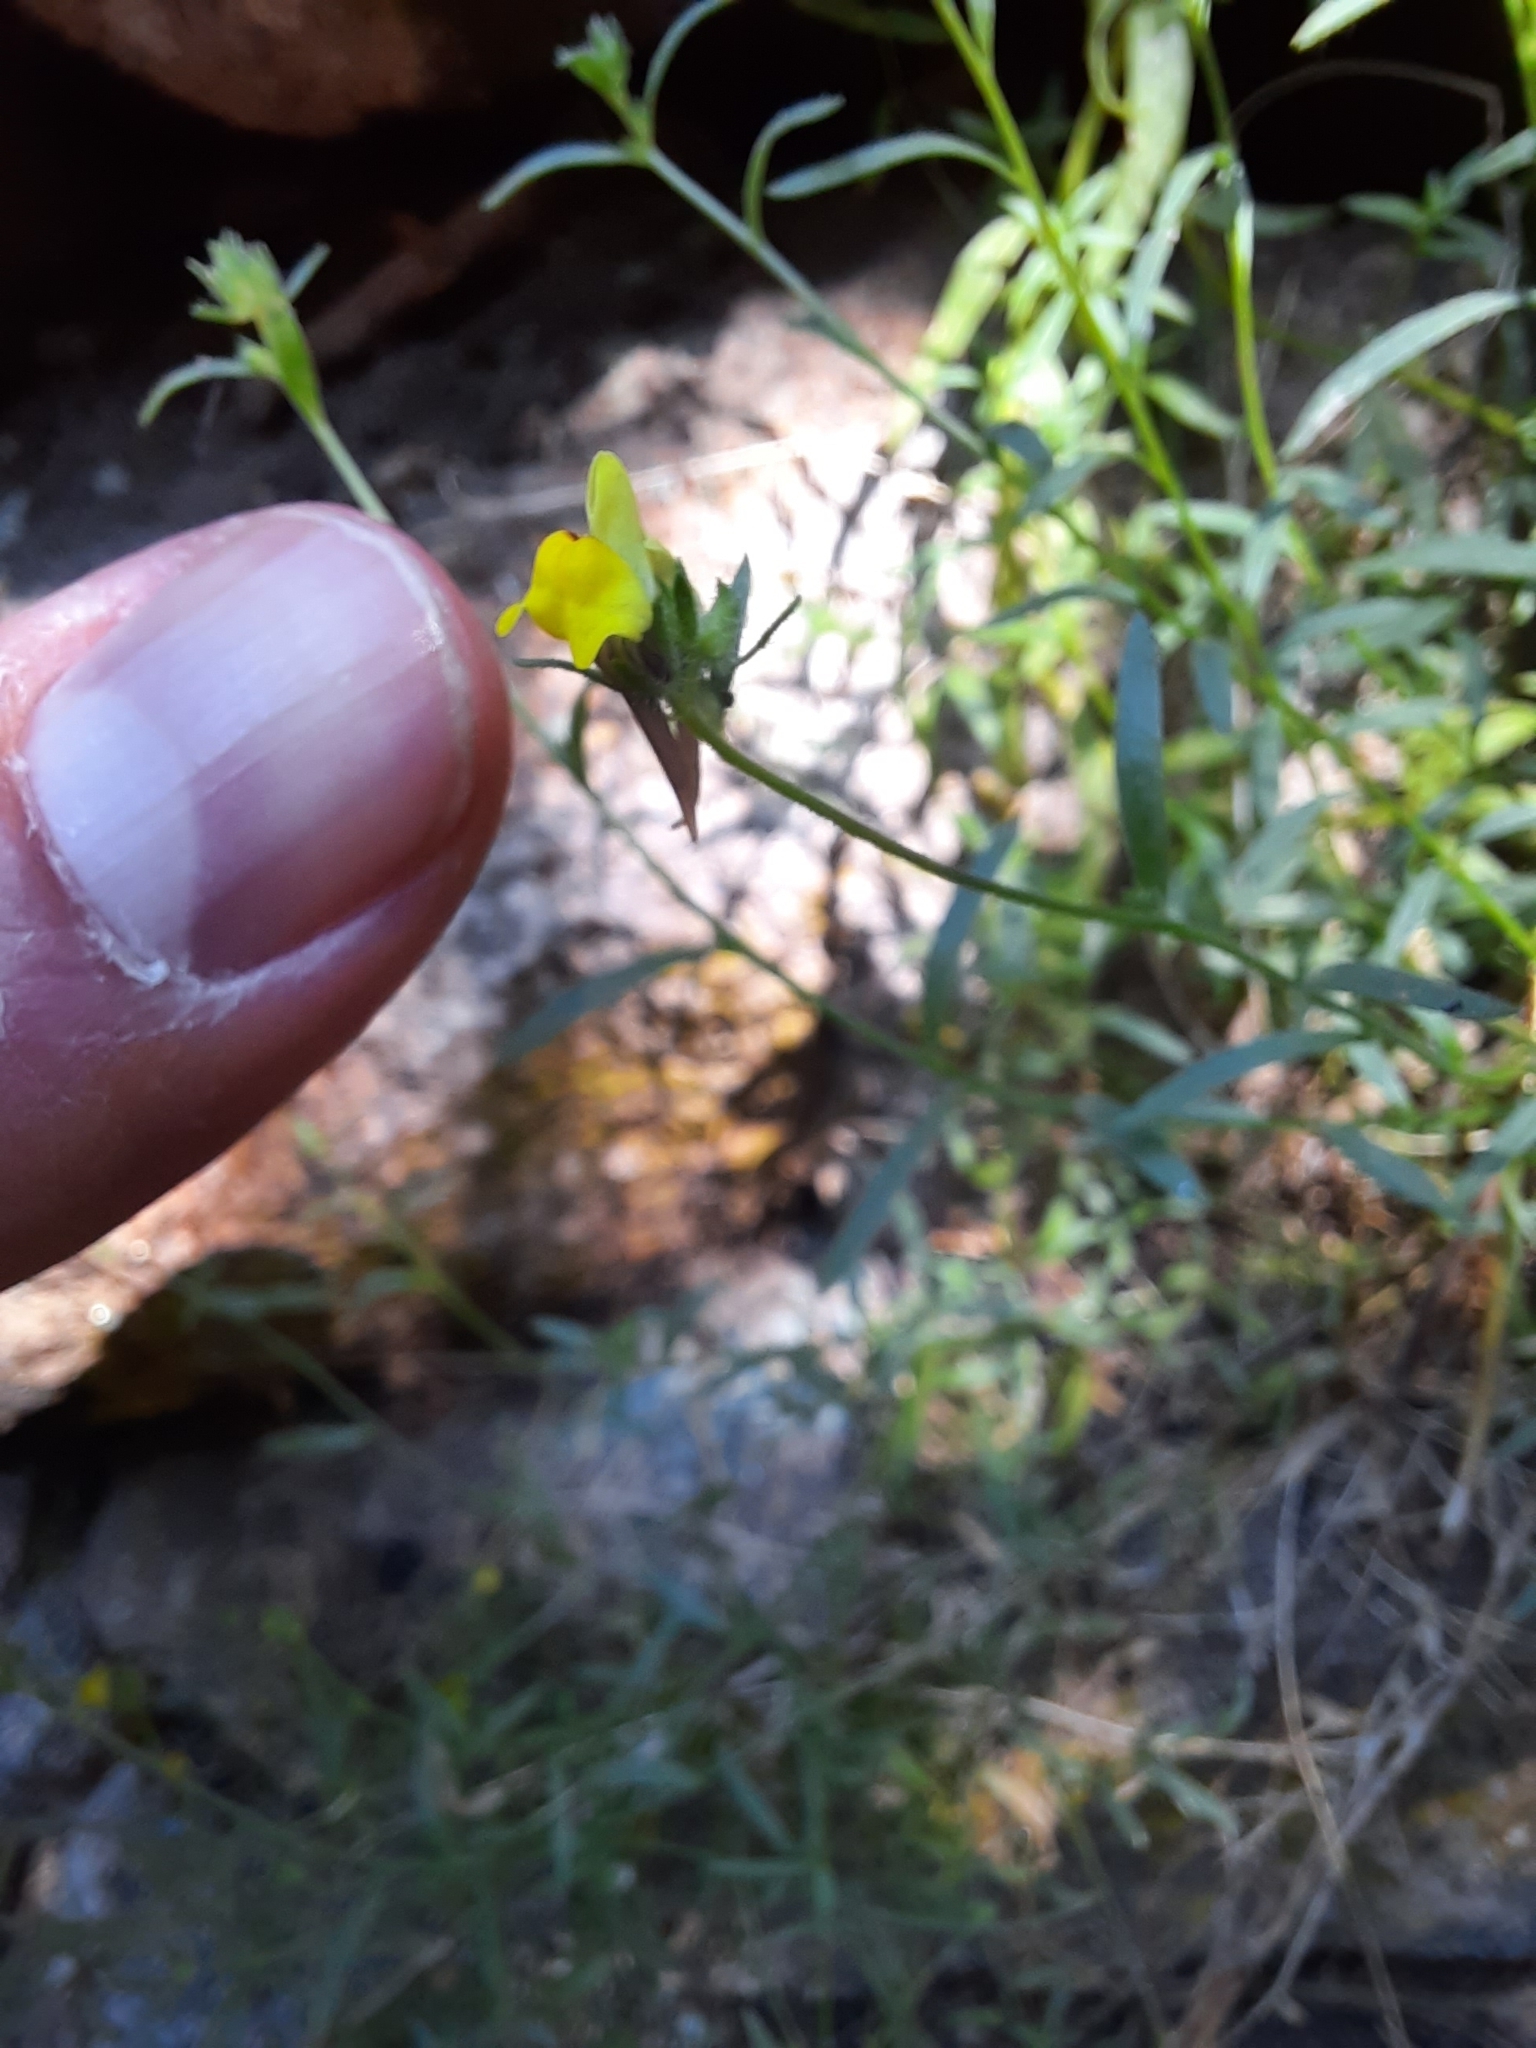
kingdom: Plantae
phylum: Tracheophyta
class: Magnoliopsida
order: Lamiales
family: Plantaginaceae
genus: Linaria
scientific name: Linaria saxatilis
